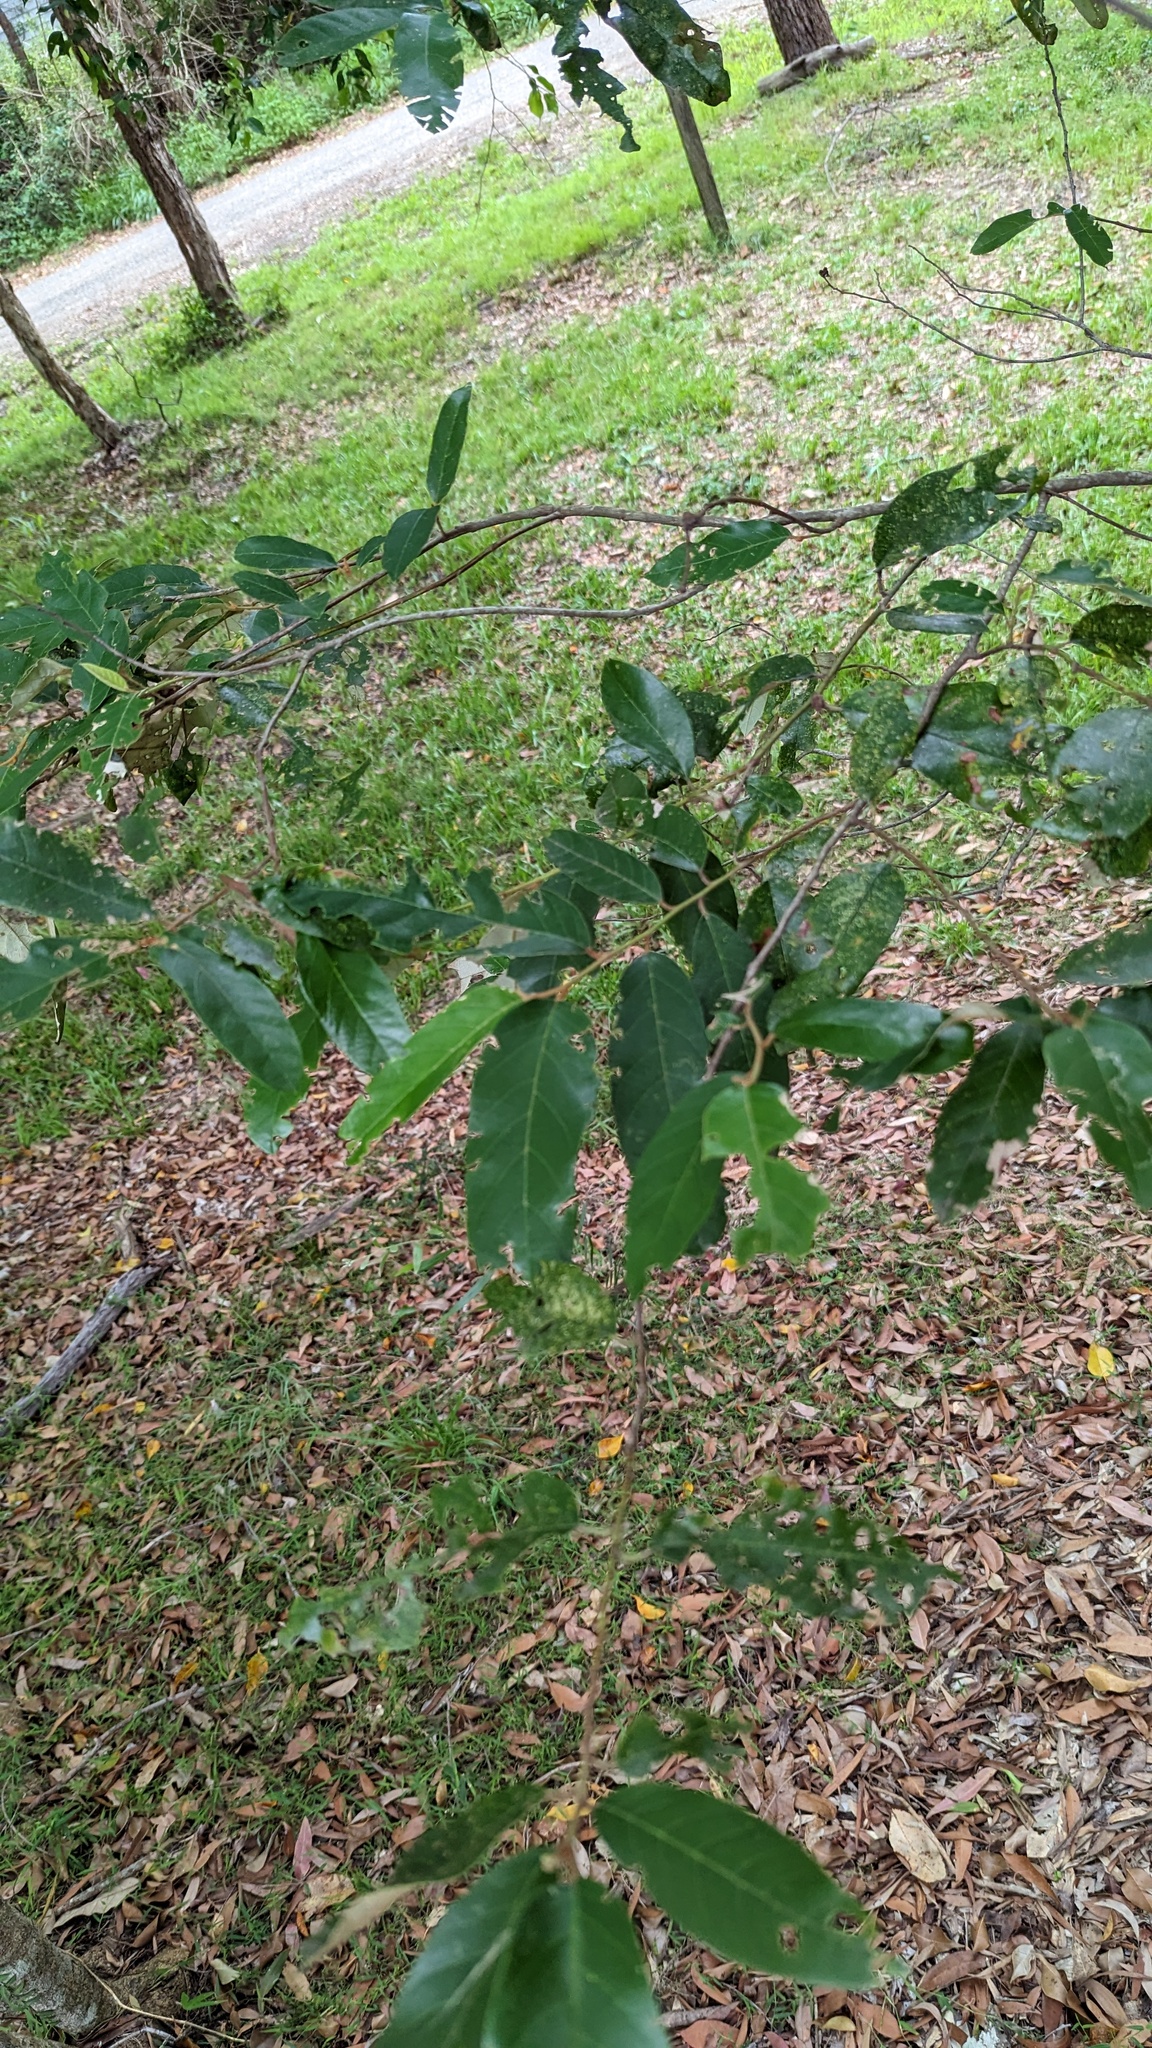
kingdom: Plantae
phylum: Tracheophyta
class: Magnoliopsida
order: Rosales
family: Rhamnaceae
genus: Alphitonia
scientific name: Alphitonia excelsa
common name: Red ash
